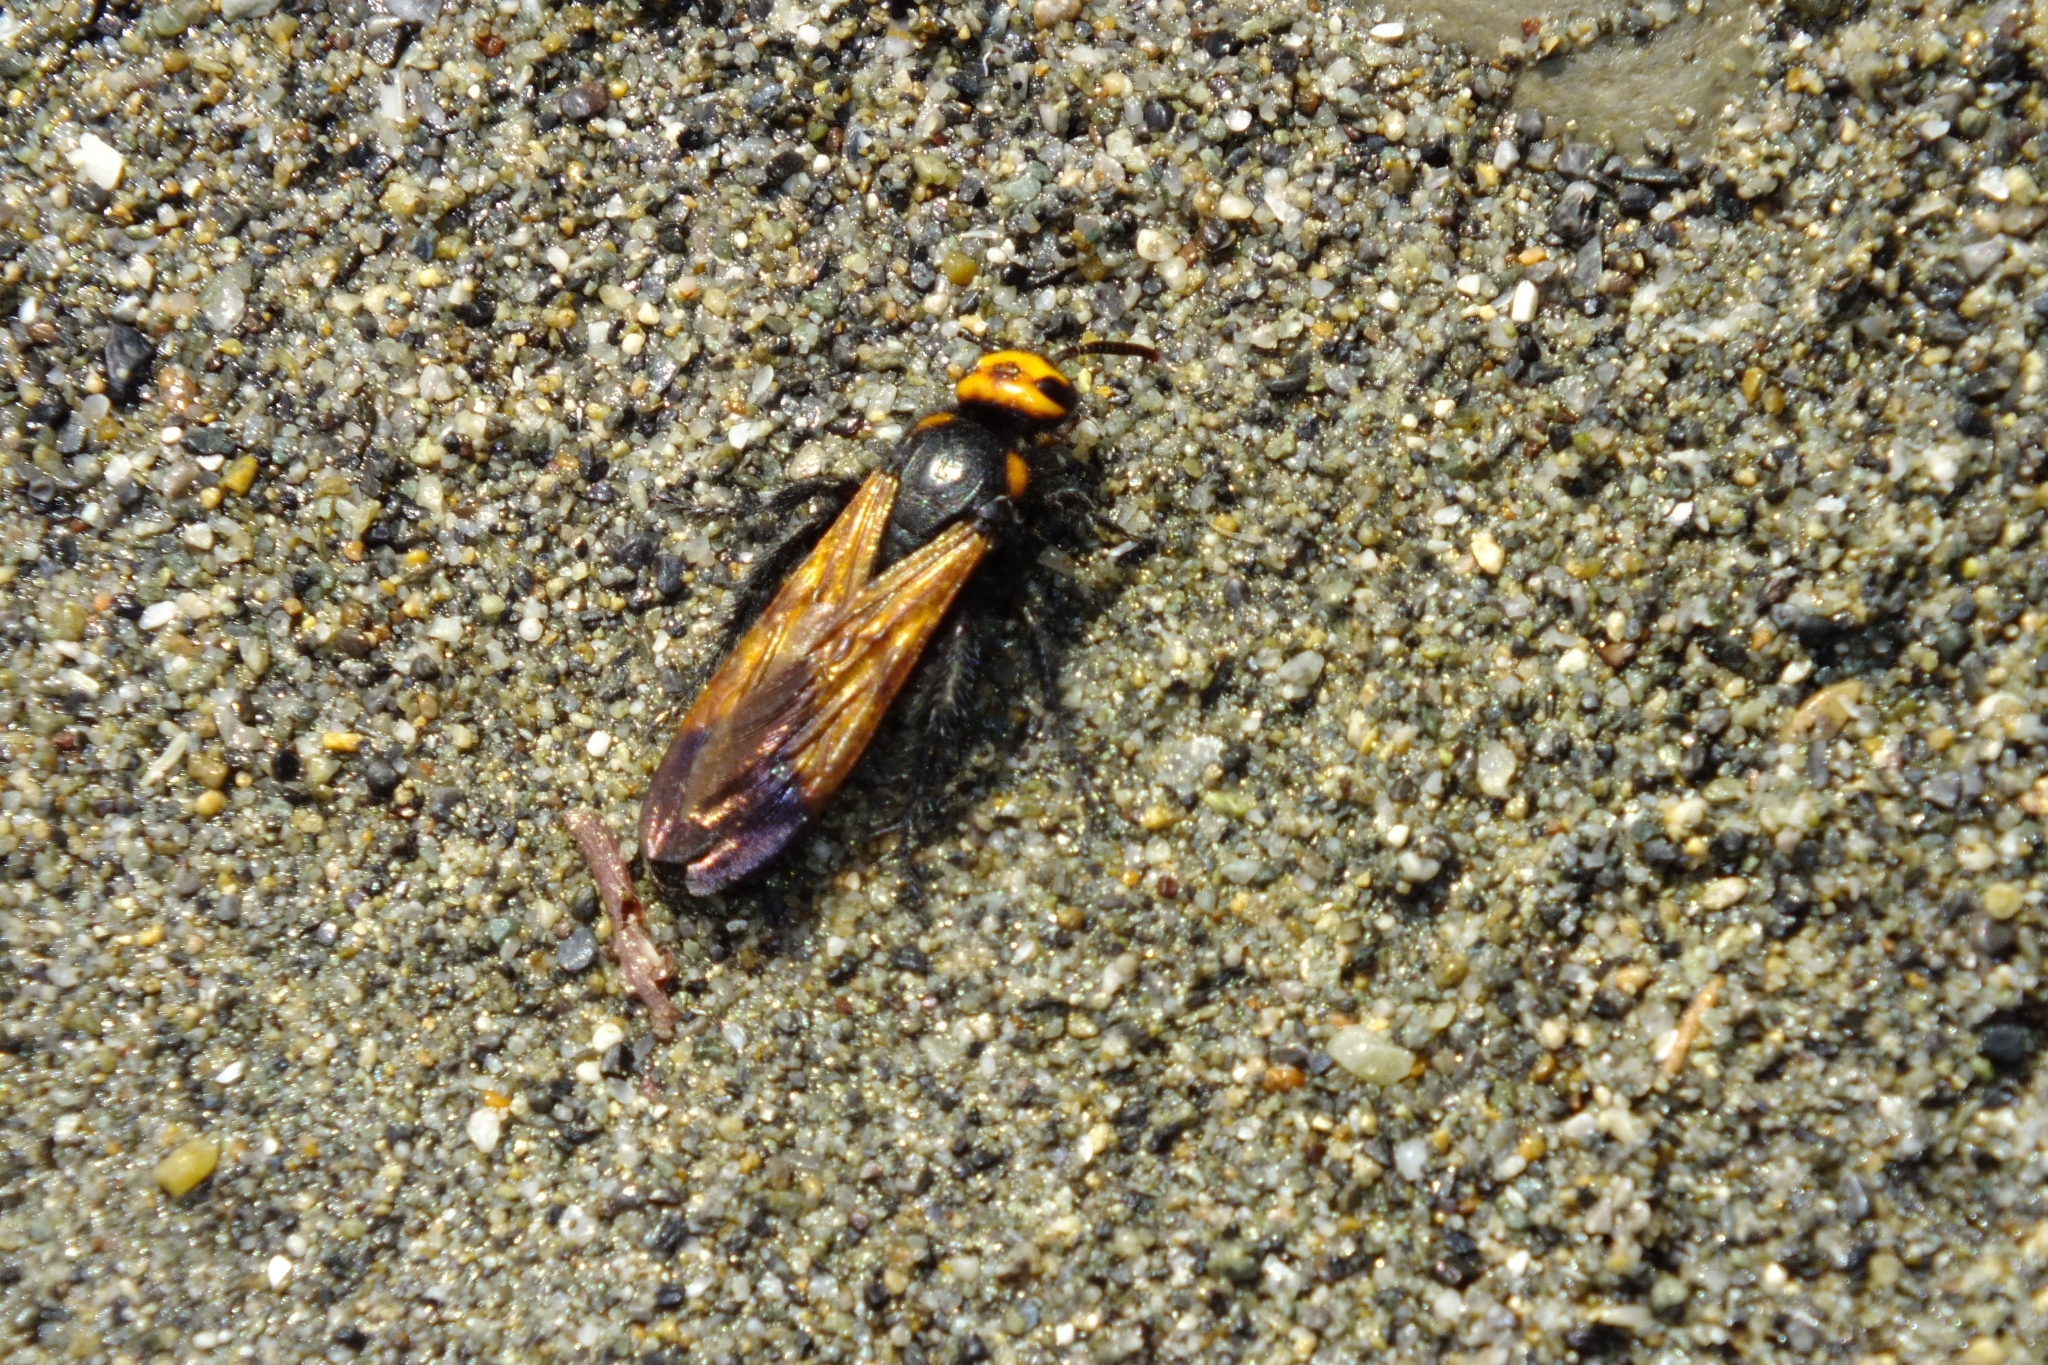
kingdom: Animalia
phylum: Arthropoda
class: Insecta
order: Hymenoptera
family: Scoliidae
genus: Scolia
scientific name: Scolia
